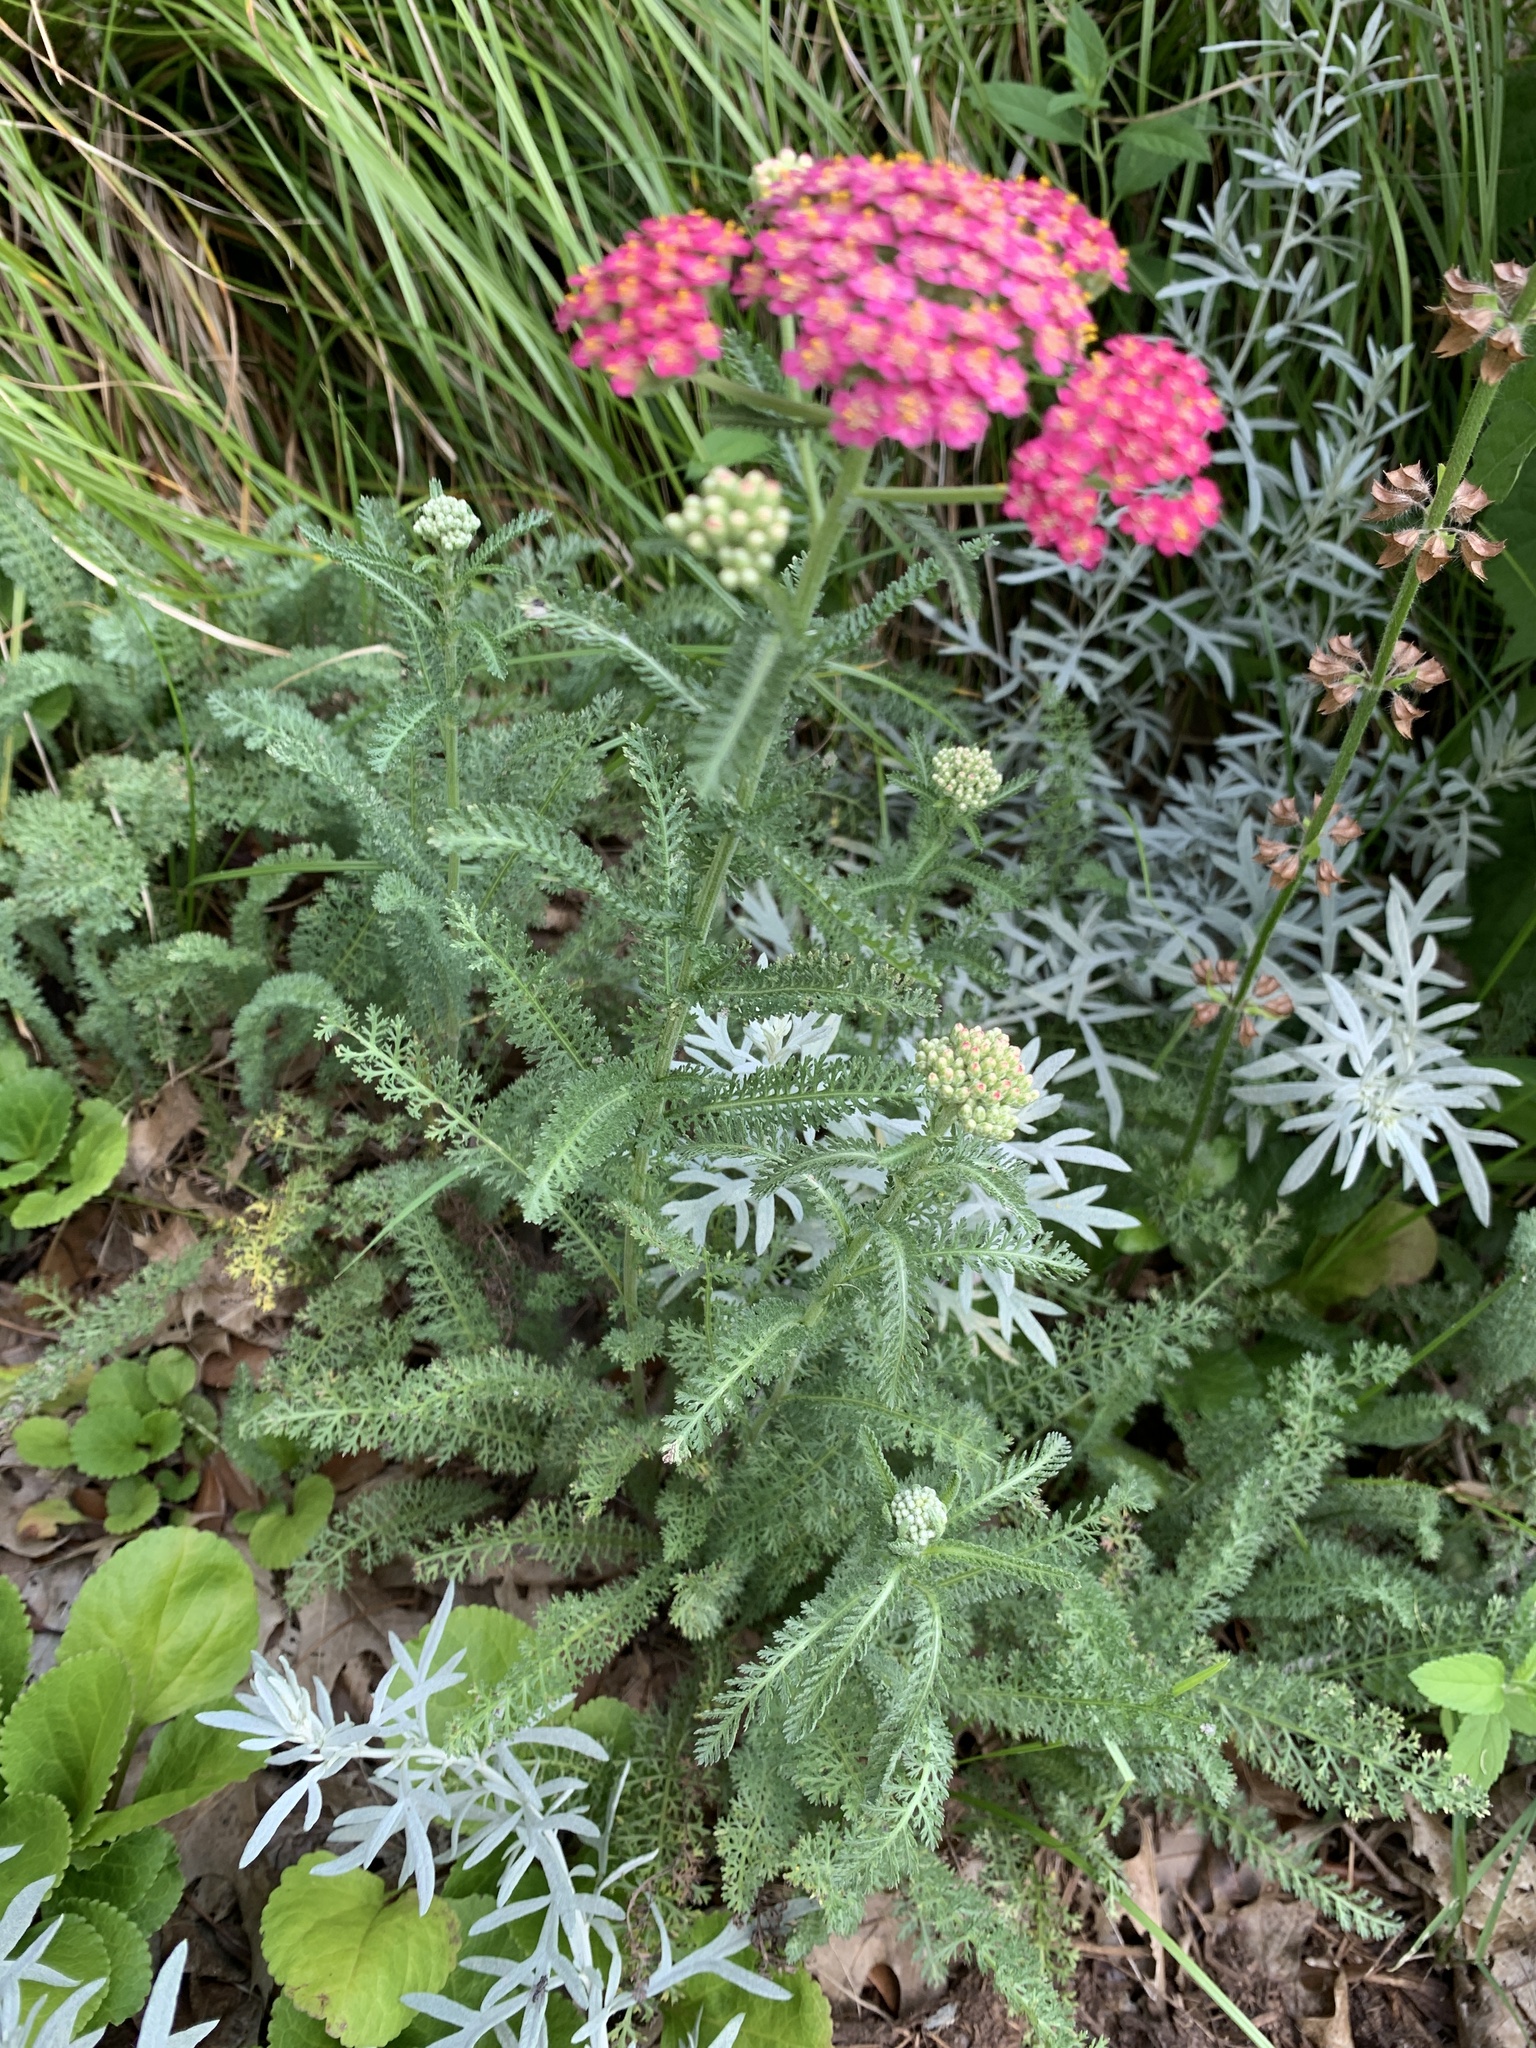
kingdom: Plantae
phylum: Tracheophyta
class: Magnoliopsida
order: Asterales
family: Asteraceae
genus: Achillea
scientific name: Achillea millefolium
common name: Yarrow
